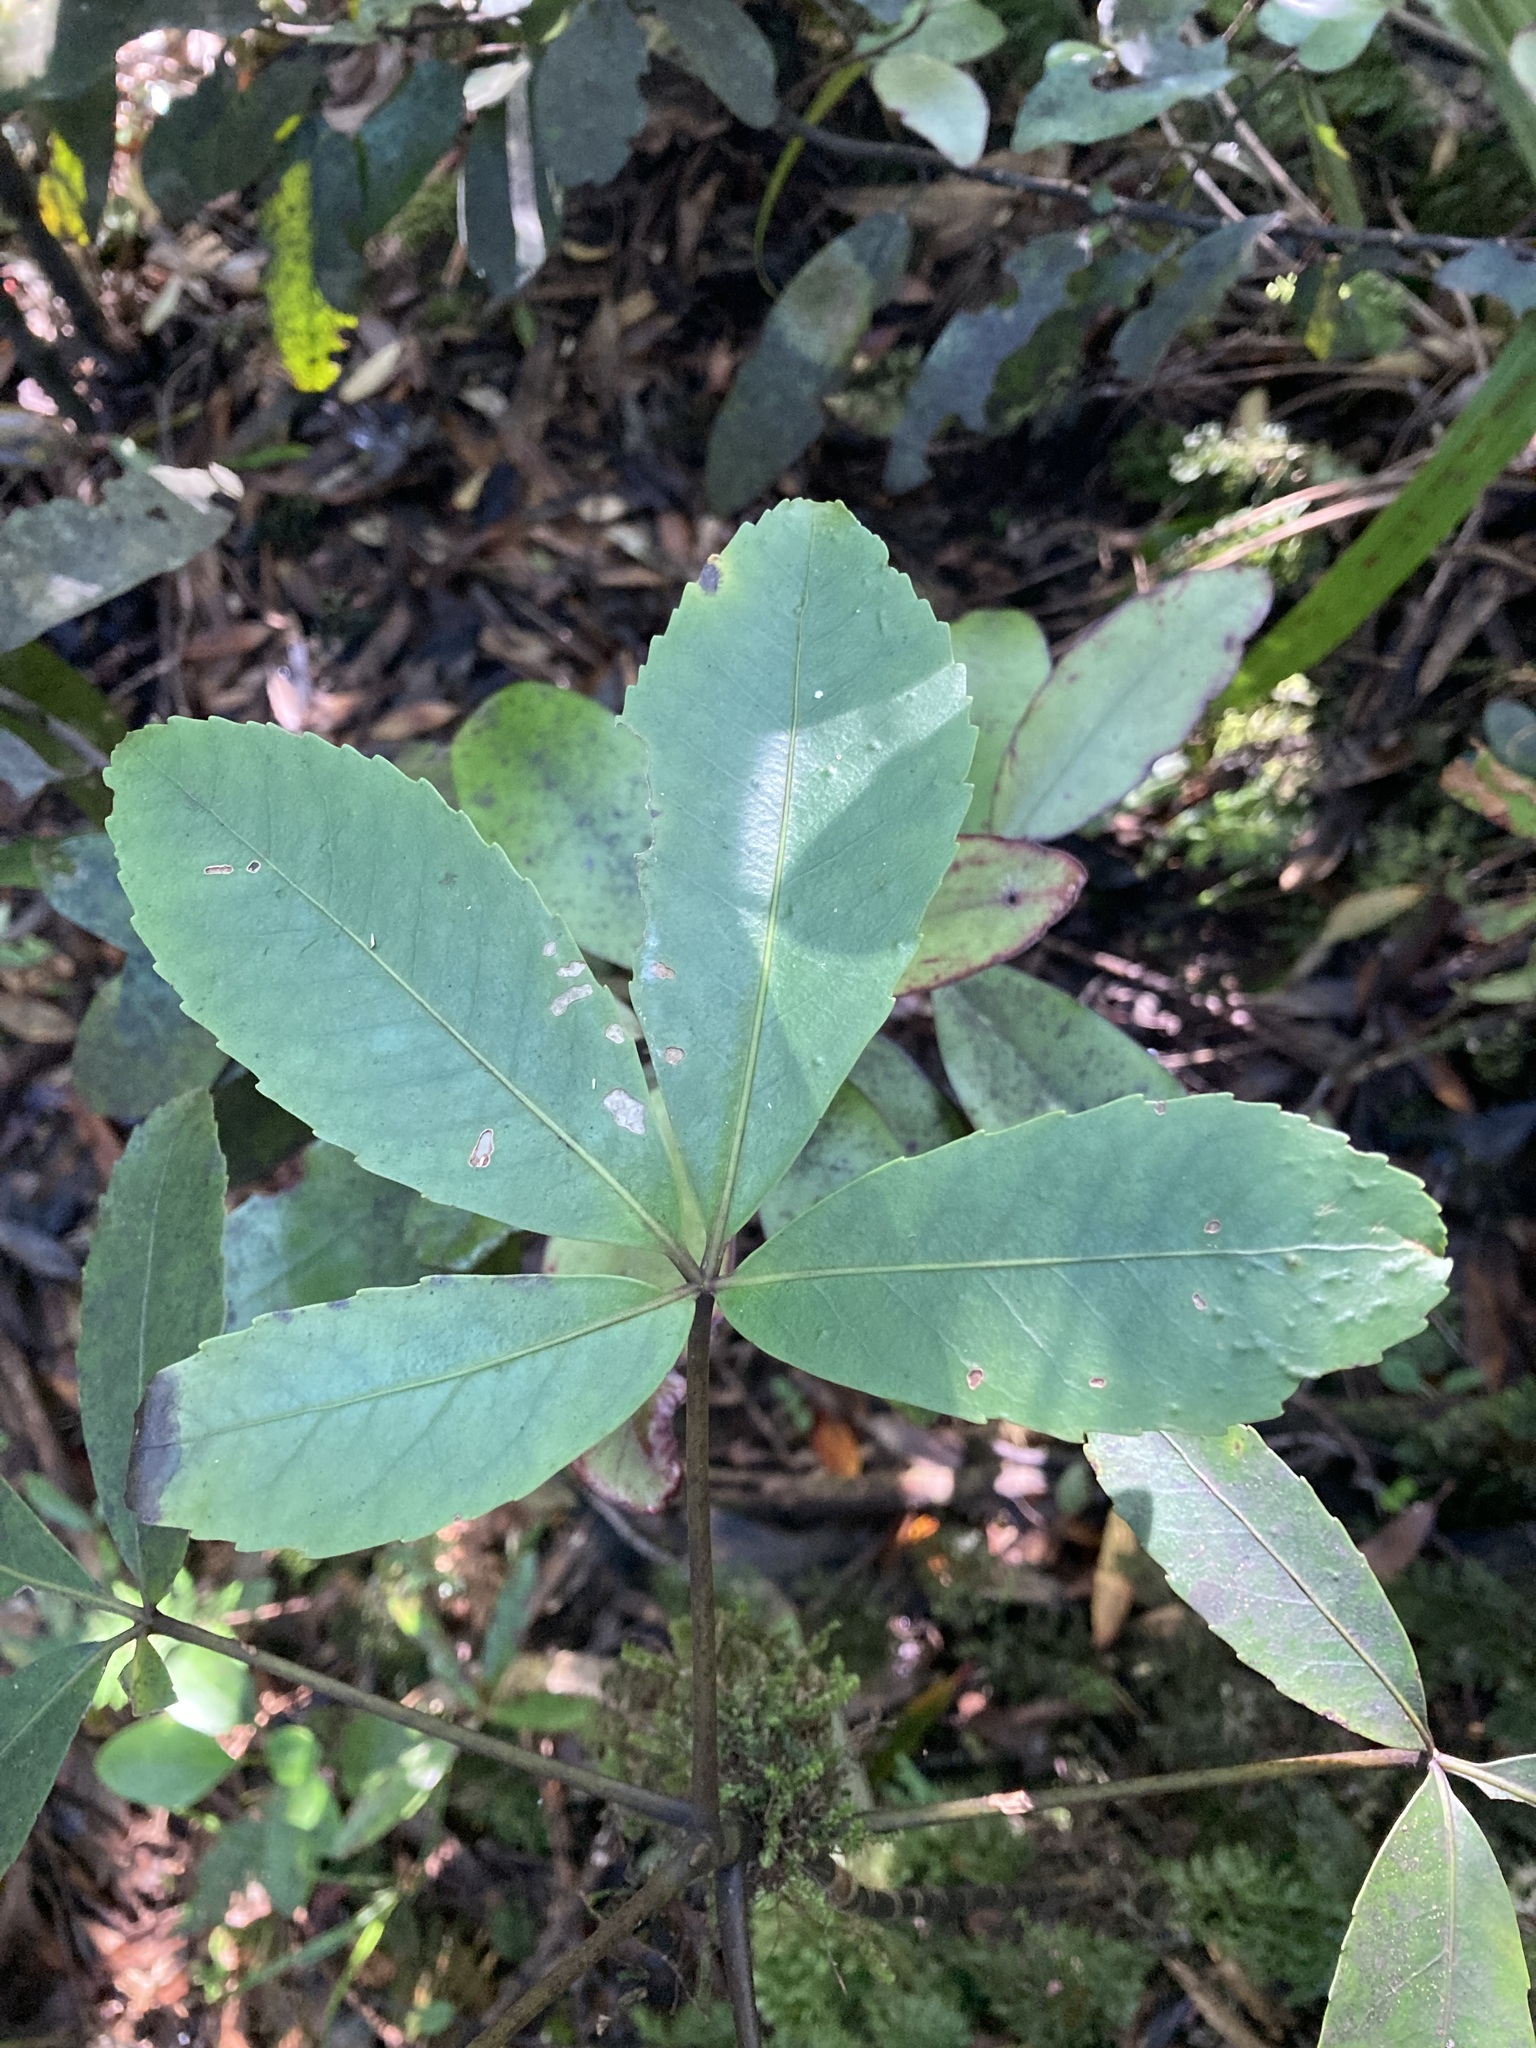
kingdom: Plantae
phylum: Tracheophyta
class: Magnoliopsida
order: Apiales
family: Araliaceae
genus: Neopanax
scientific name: Neopanax colensoi
